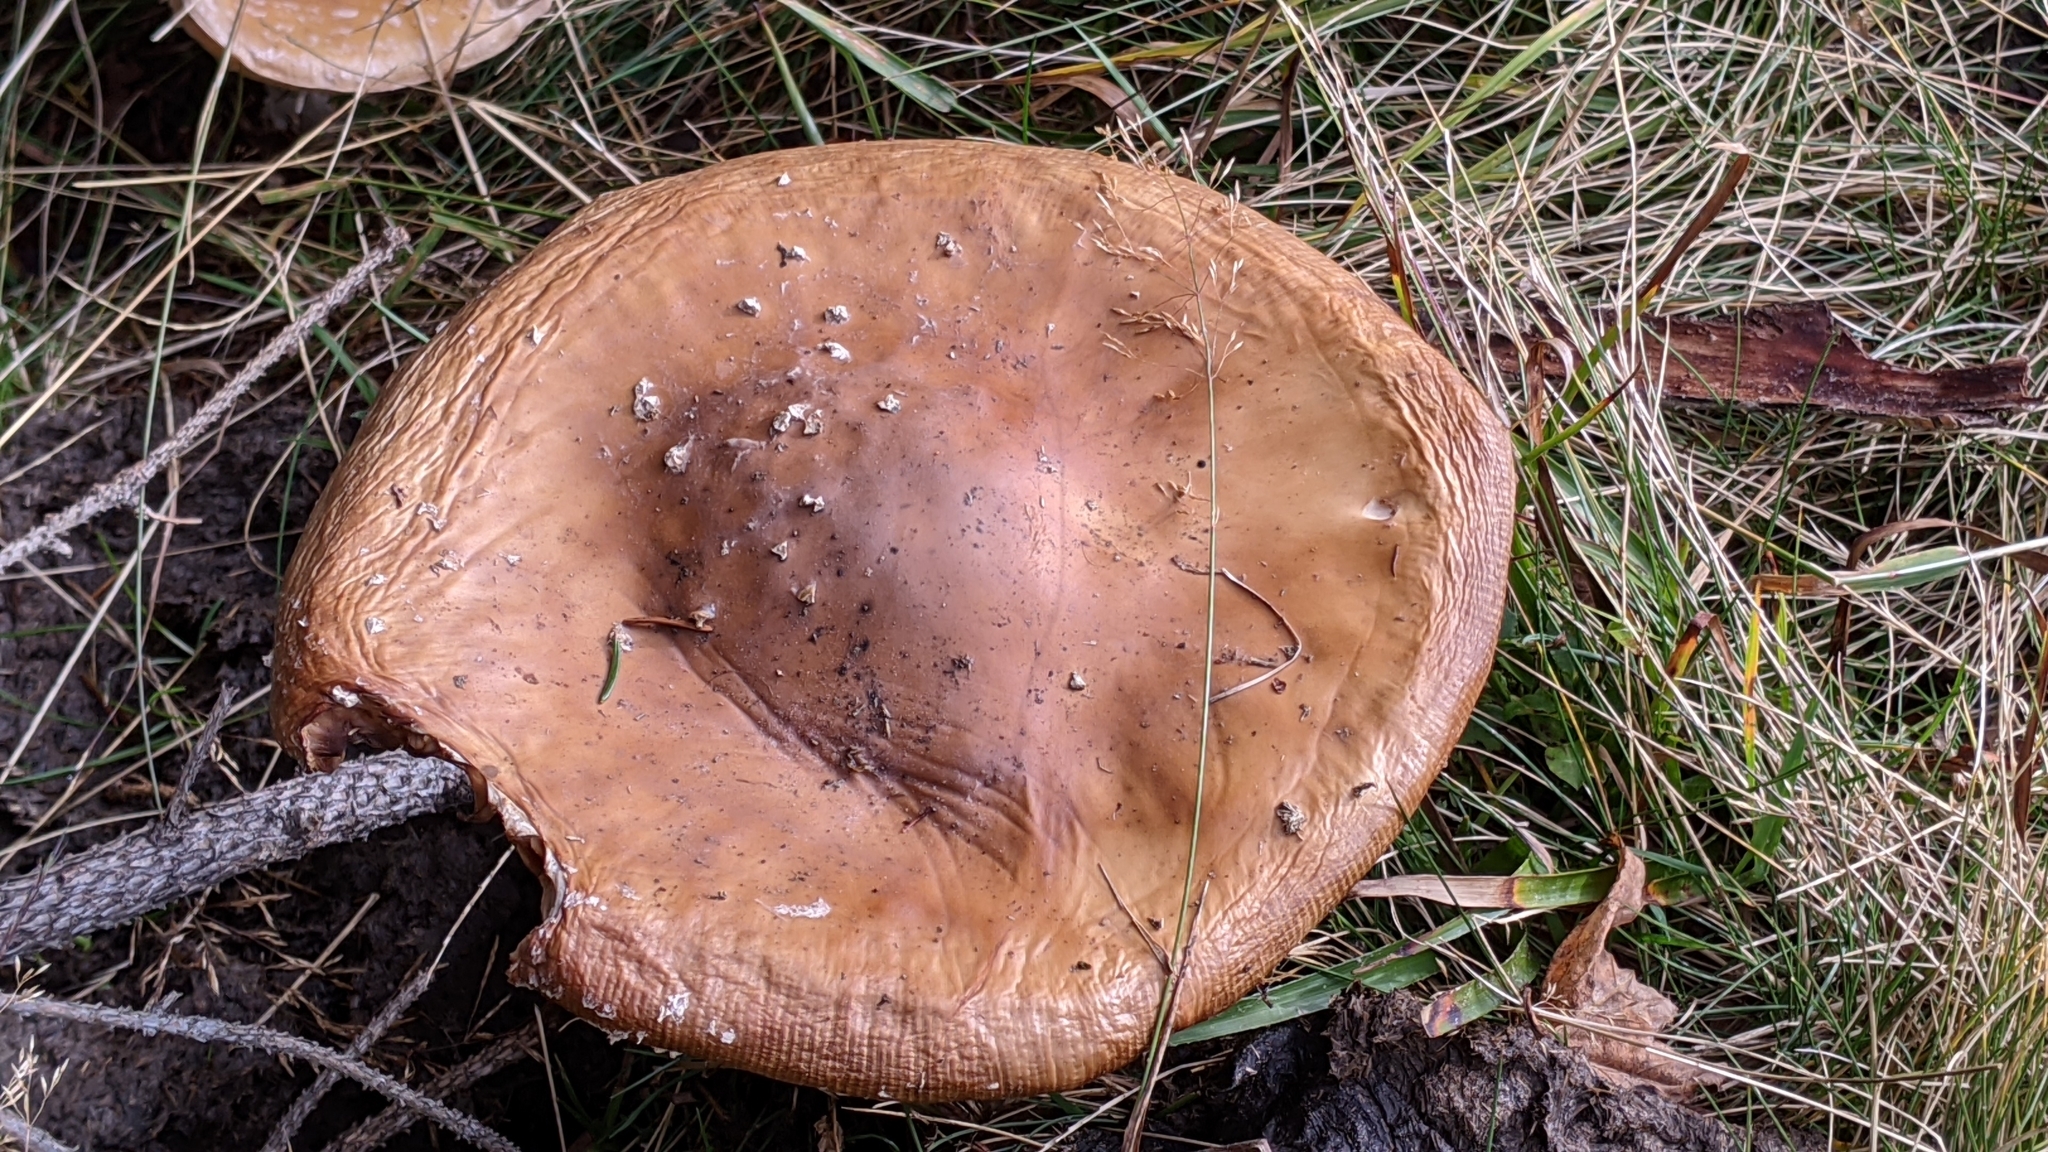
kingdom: Fungi
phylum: Basidiomycota
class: Agaricomycetes
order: Agaricales
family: Amanitaceae
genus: Amanita
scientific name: Amanita
